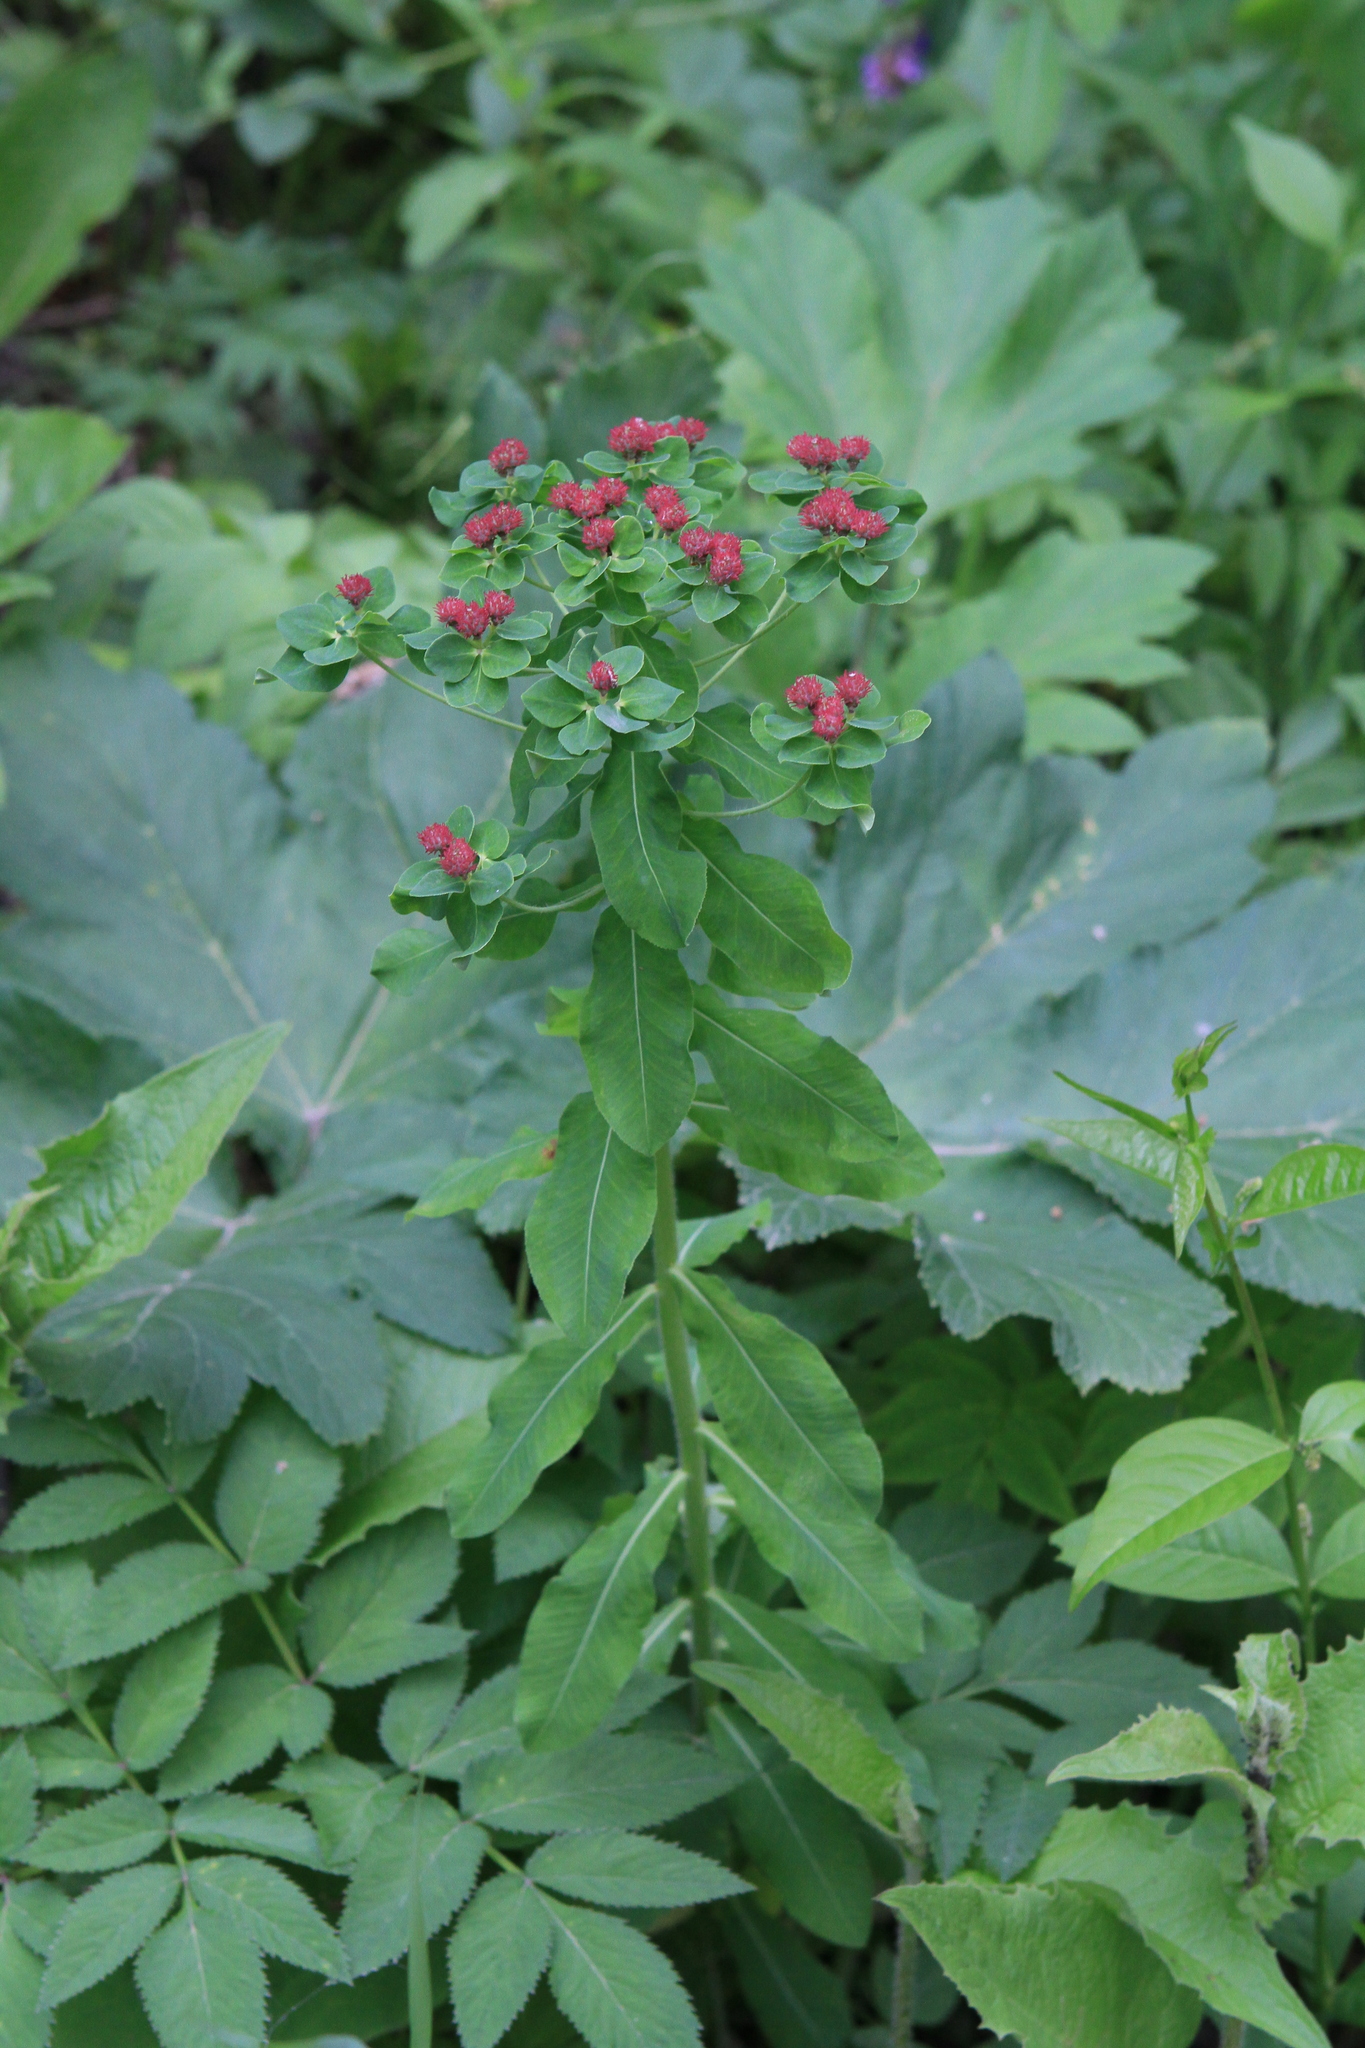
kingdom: Plantae
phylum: Tracheophyta
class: Magnoliopsida
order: Malpighiales
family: Euphorbiaceae
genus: Euphorbia
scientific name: Euphorbia pilosa
